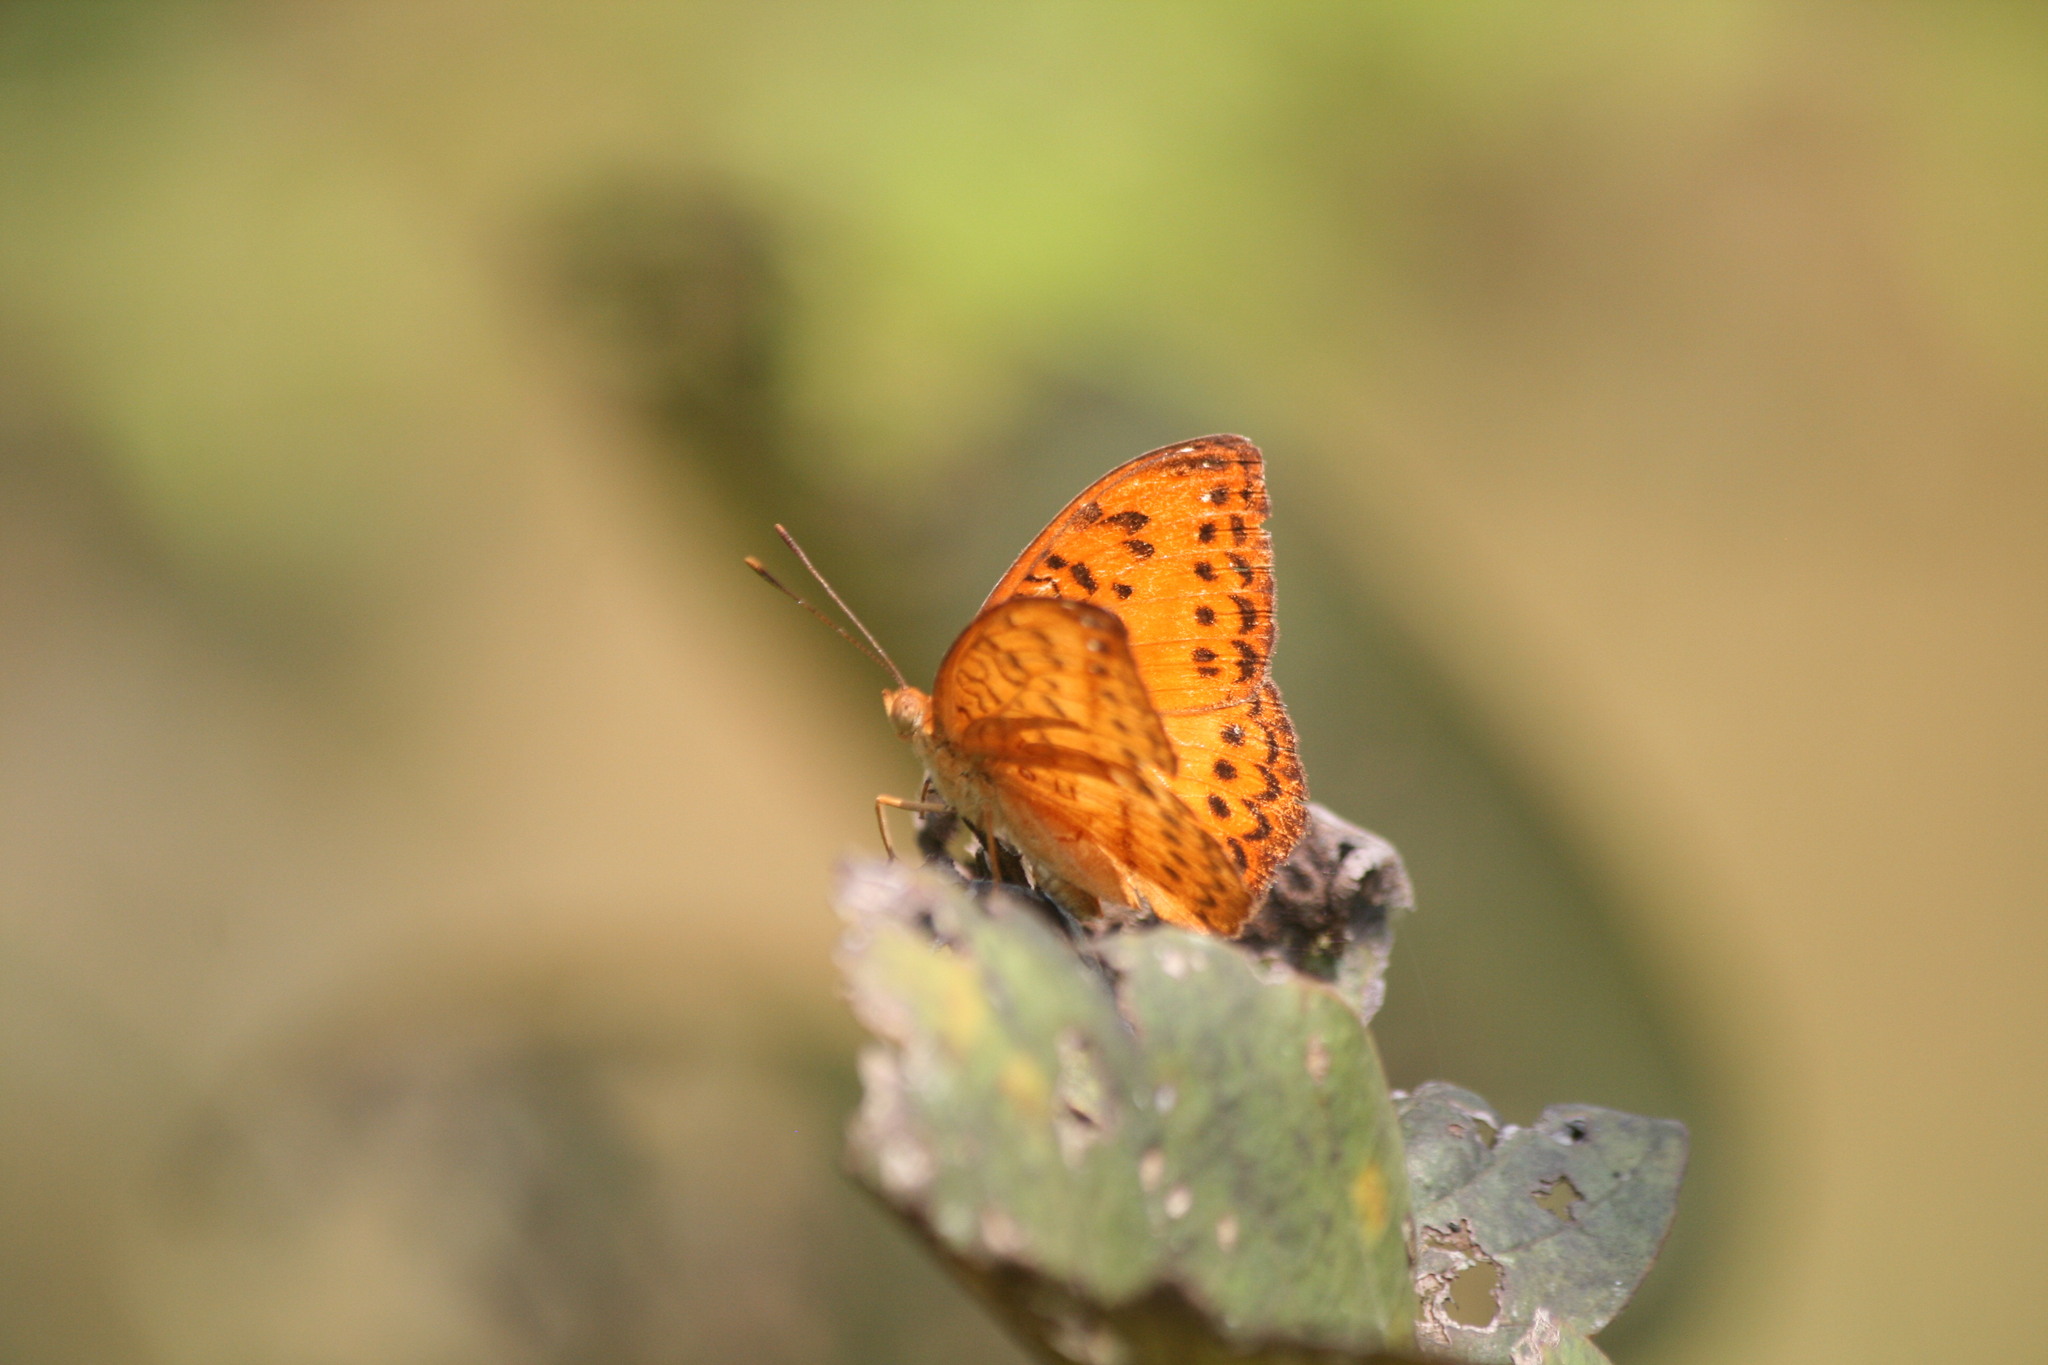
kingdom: Animalia
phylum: Arthropoda
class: Insecta
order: Lepidoptera
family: Nymphalidae
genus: Pseudacraea
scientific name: Pseudacraea Pseudargynnis hegemone
